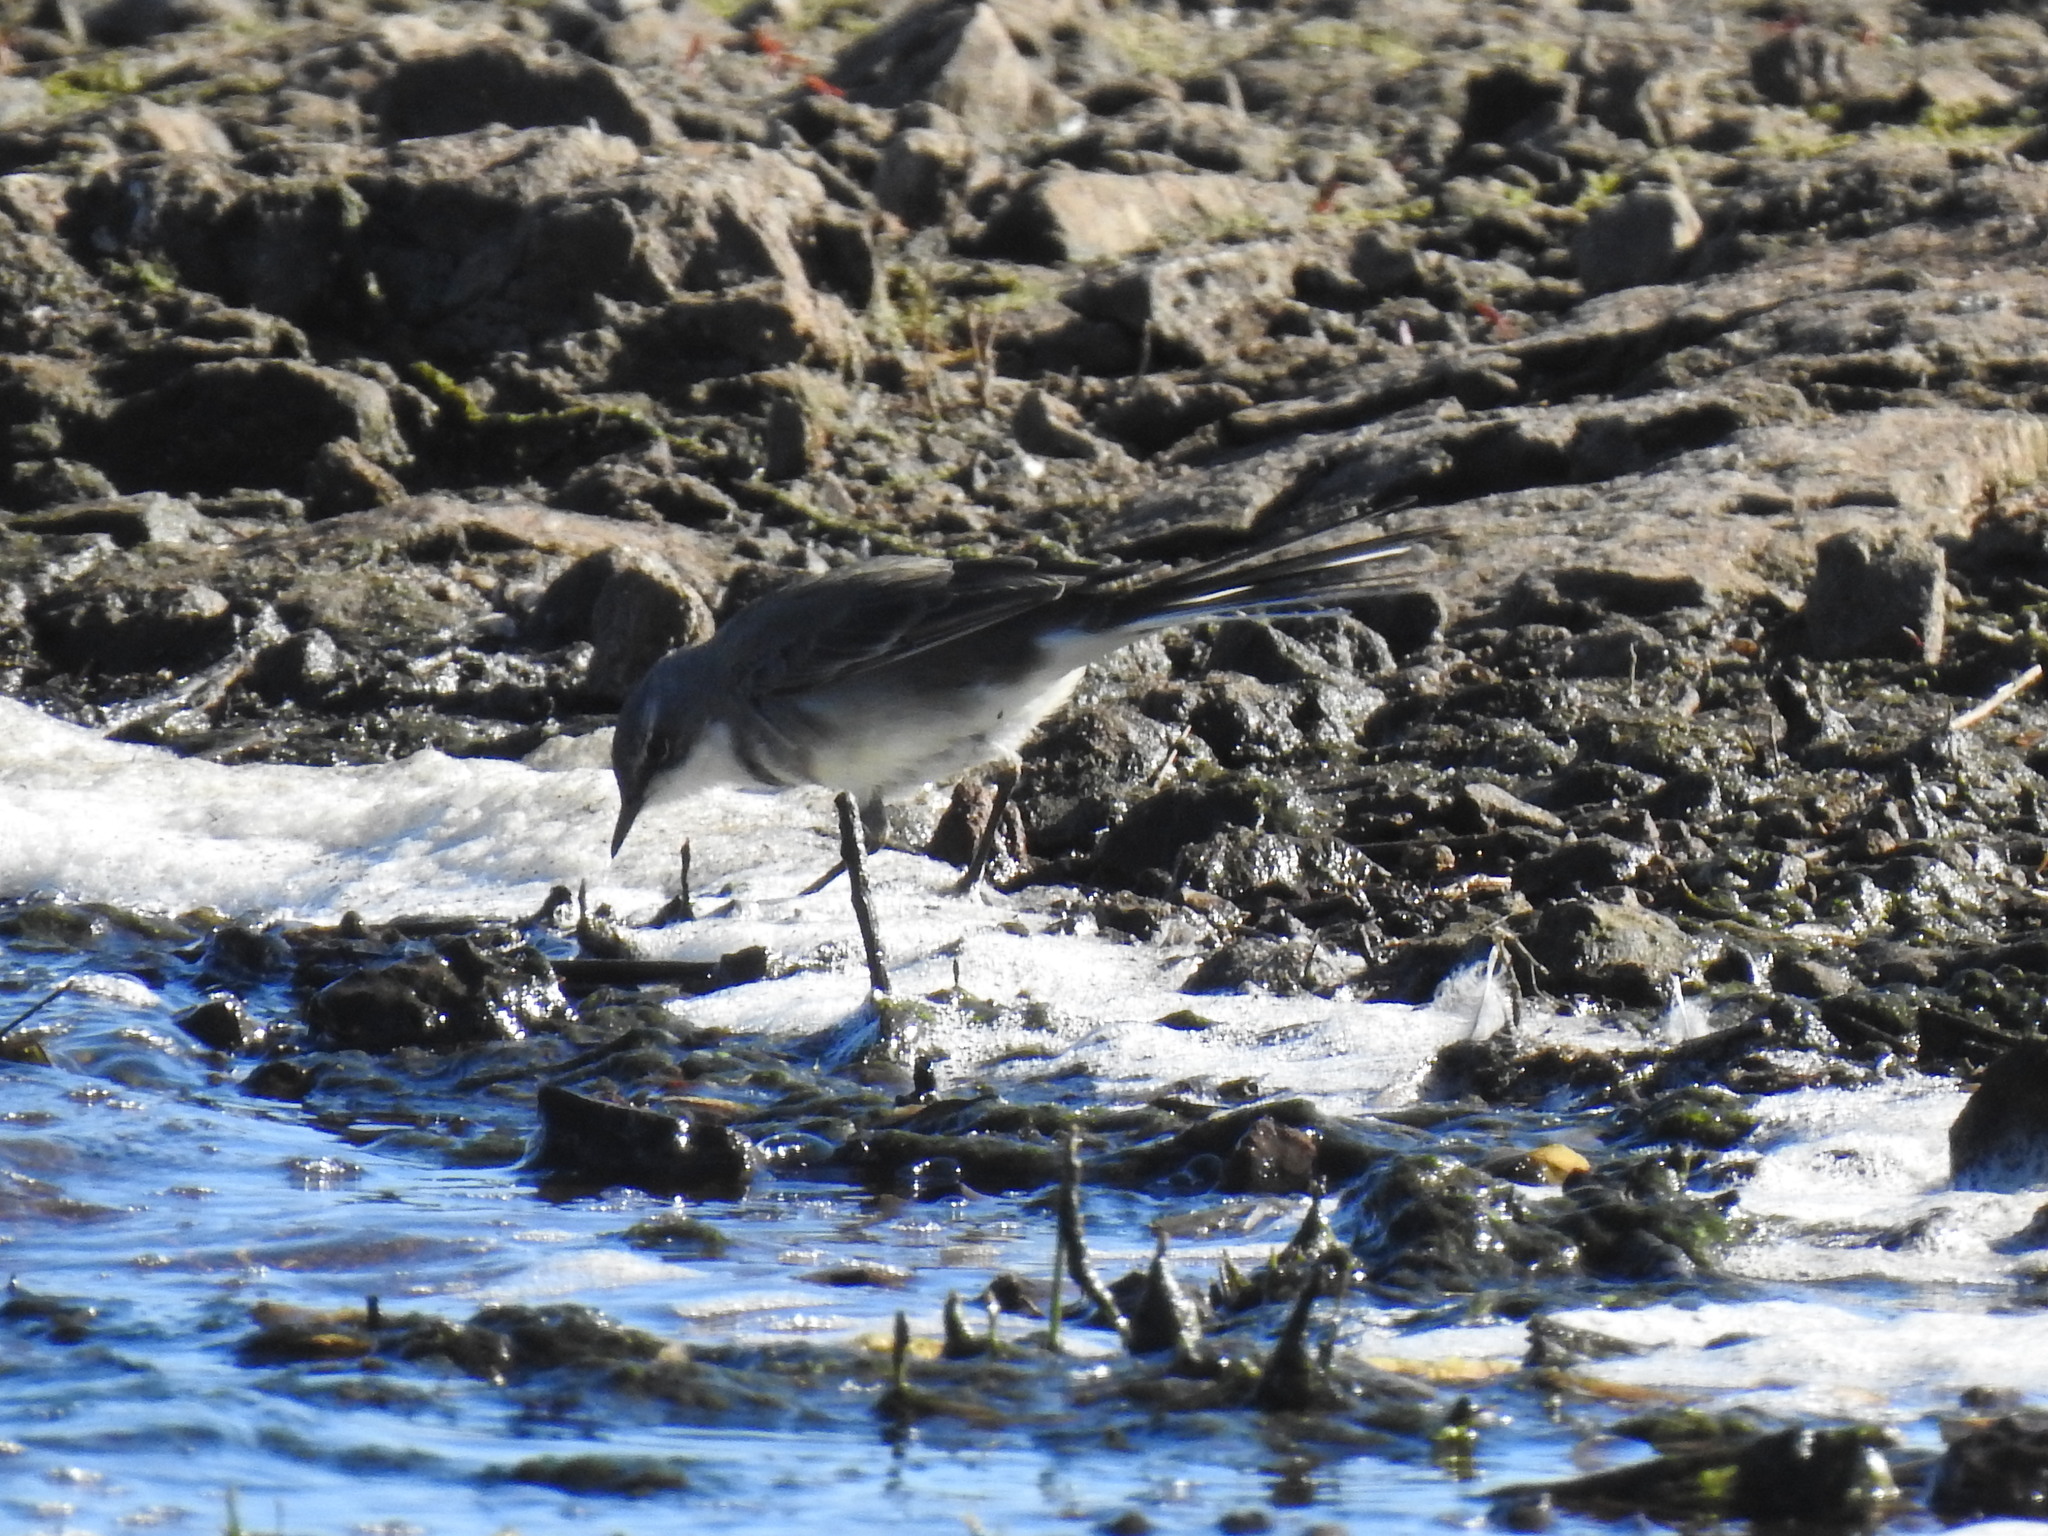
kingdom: Animalia
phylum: Chordata
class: Aves
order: Passeriformes
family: Motacillidae
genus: Motacilla
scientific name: Motacilla capensis
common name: Cape wagtail
